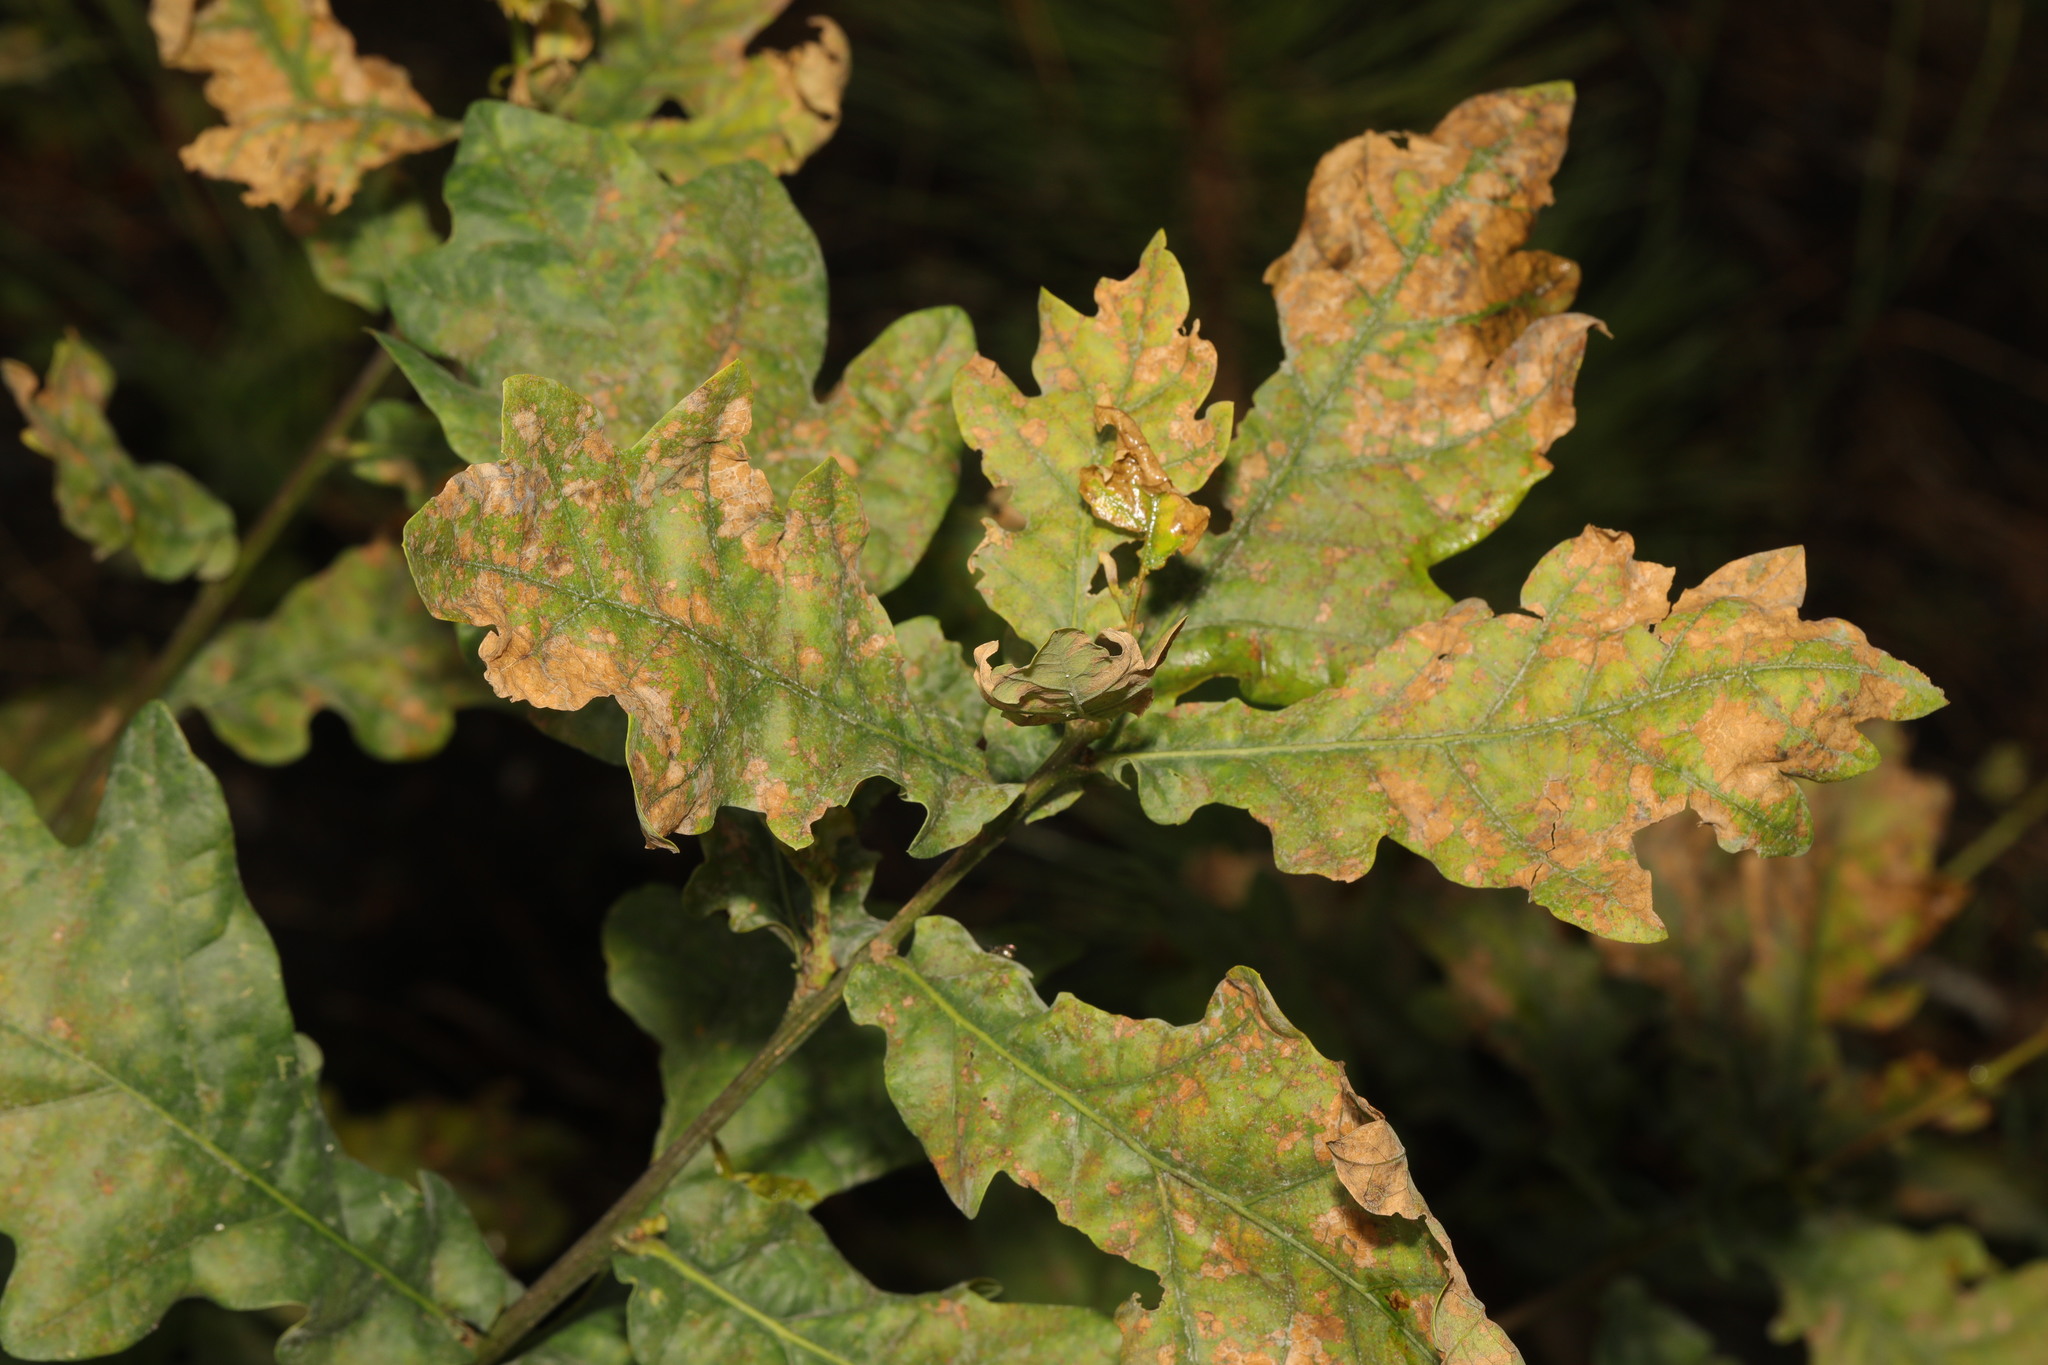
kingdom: Plantae
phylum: Tracheophyta
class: Magnoliopsida
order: Fagales
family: Fagaceae
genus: Quercus
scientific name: Quercus robur
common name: Pedunculate oak
